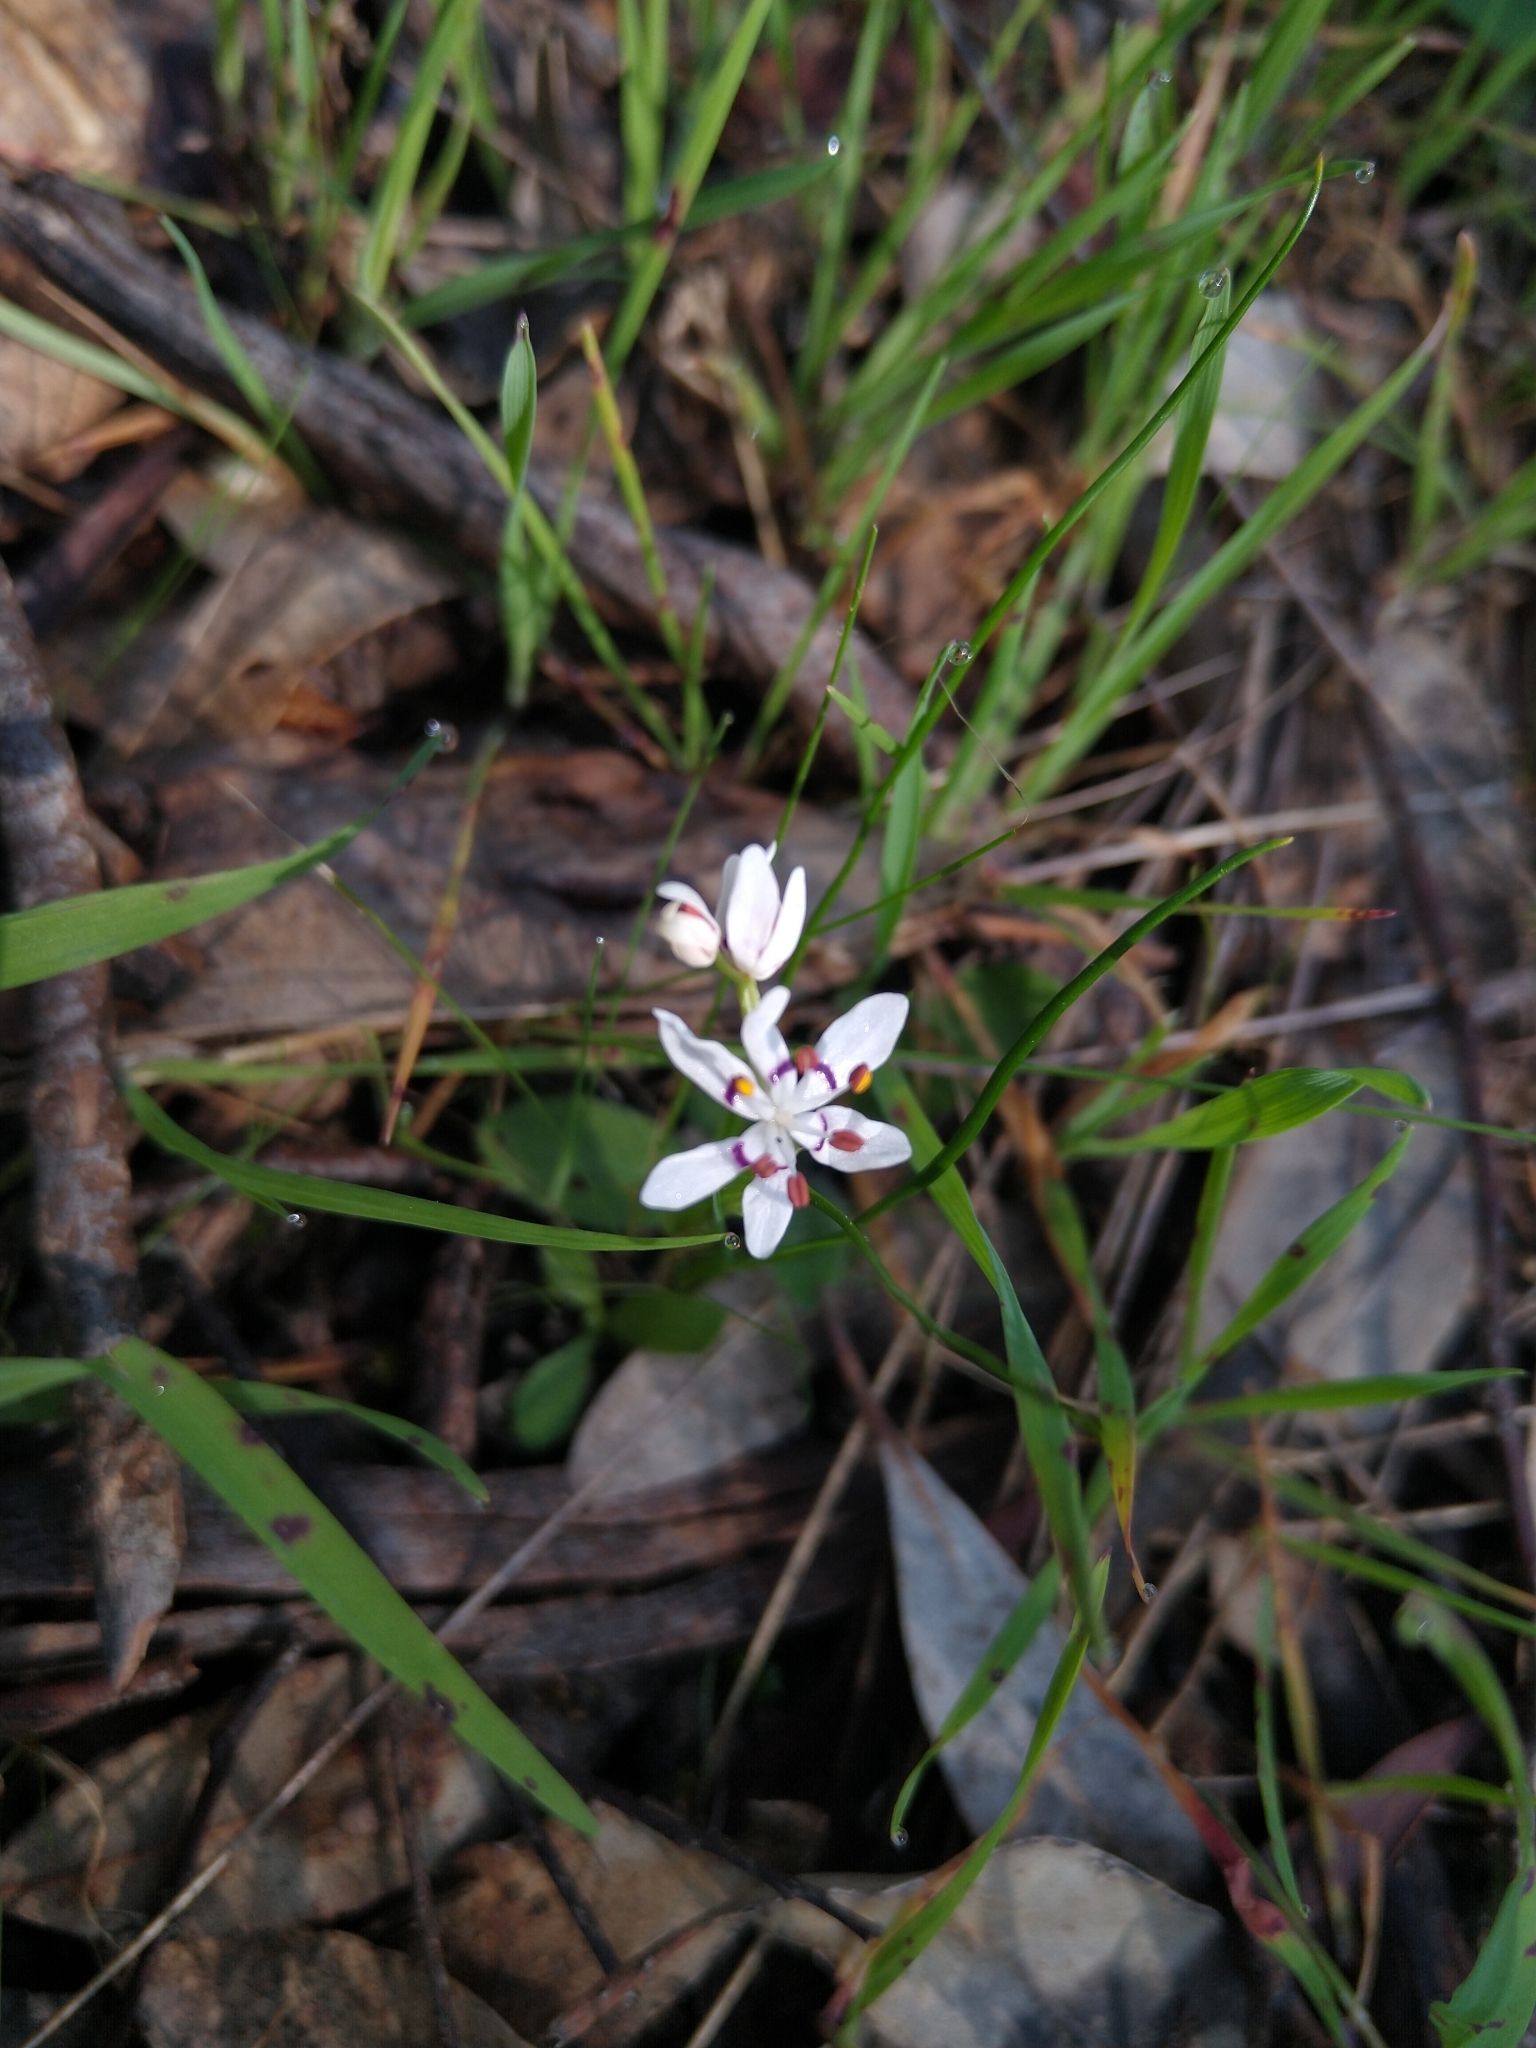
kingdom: Plantae
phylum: Tracheophyta
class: Liliopsida
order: Liliales
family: Colchicaceae
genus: Wurmbea
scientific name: Wurmbea dioica
